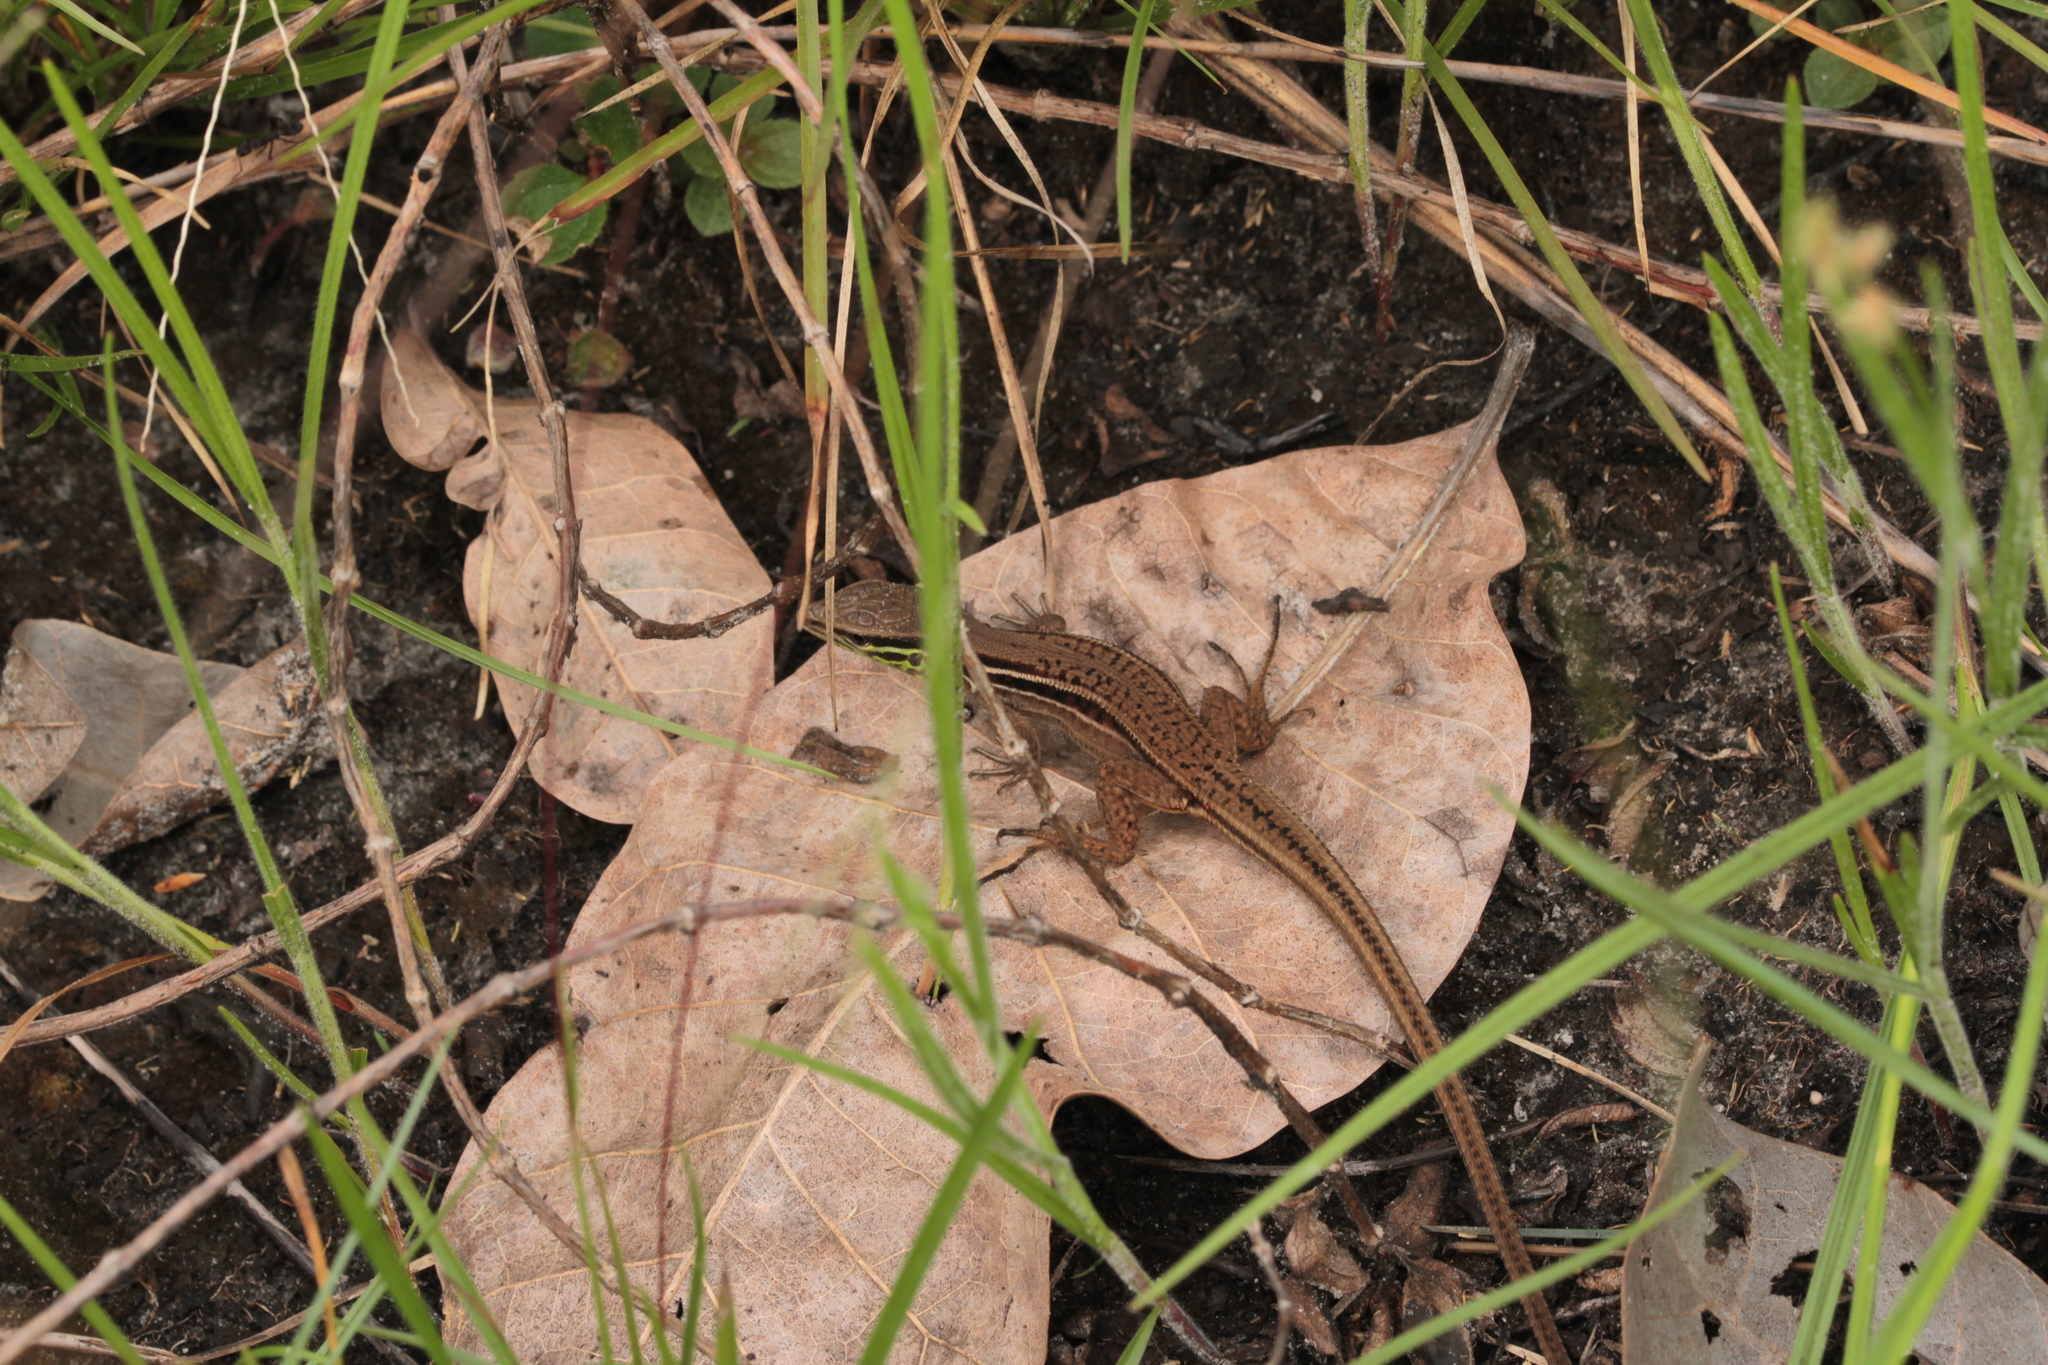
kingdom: Animalia
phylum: Chordata
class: Squamata
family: Teiidae
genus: Kentropyx
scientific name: Kentropyx striata
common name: Striped whiptail
